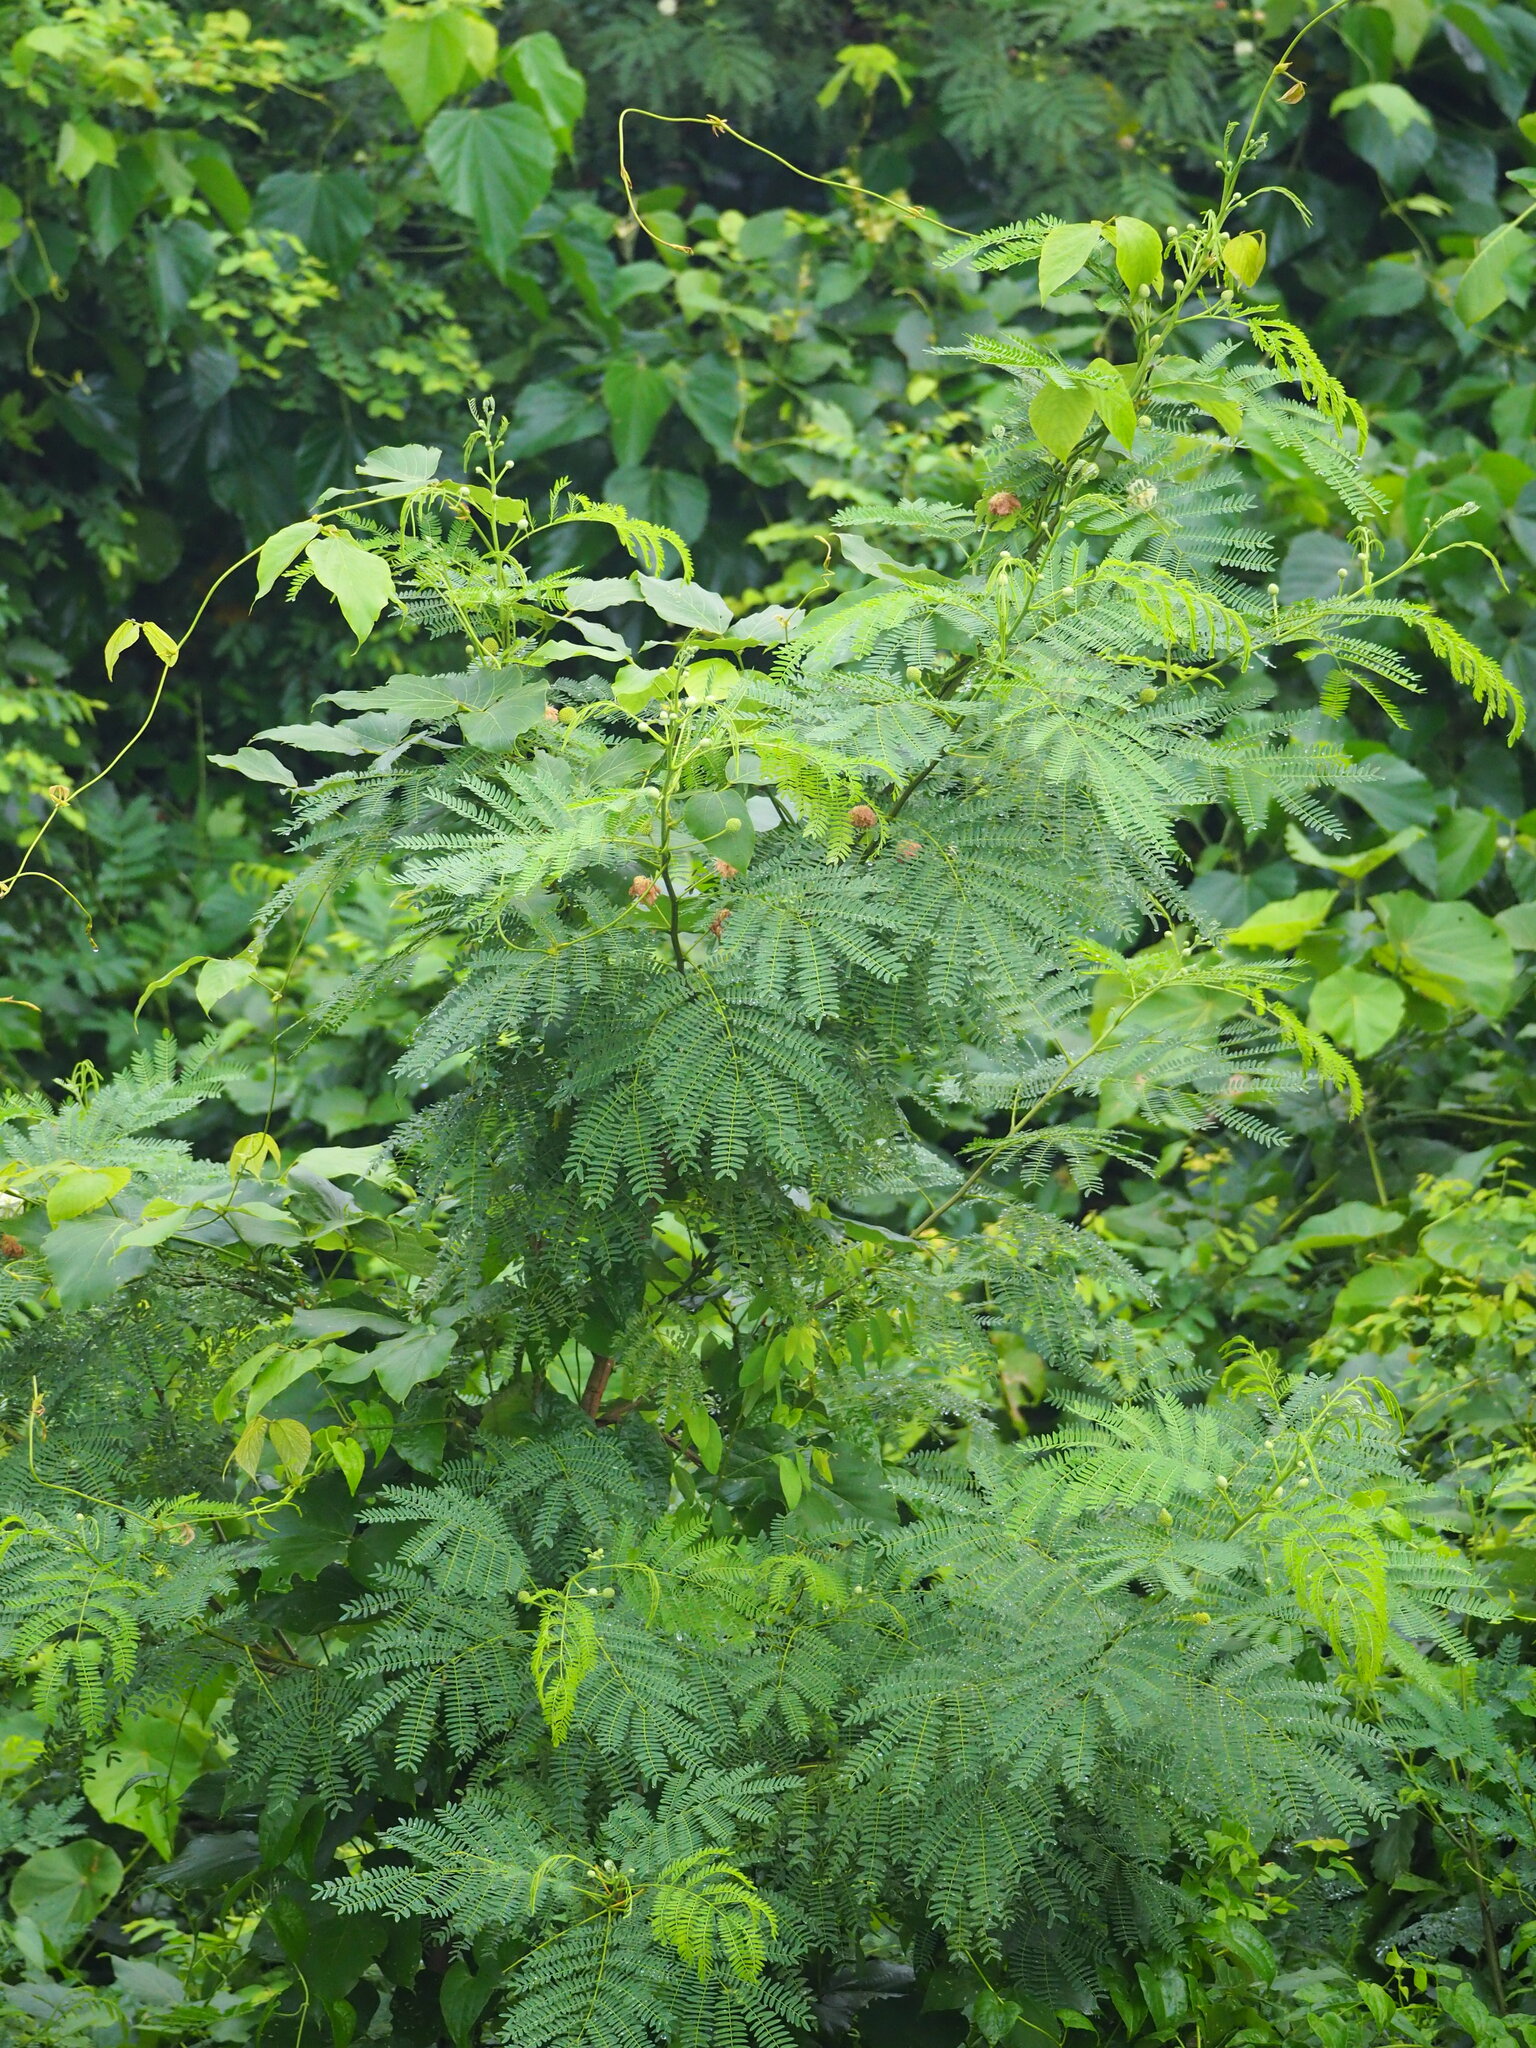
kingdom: Plantae
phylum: Tracheophyta
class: Magnoliopsida
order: Fabales
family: Fabaceae
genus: Leucaena
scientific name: Leucaena leucocephala
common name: White leadtree
